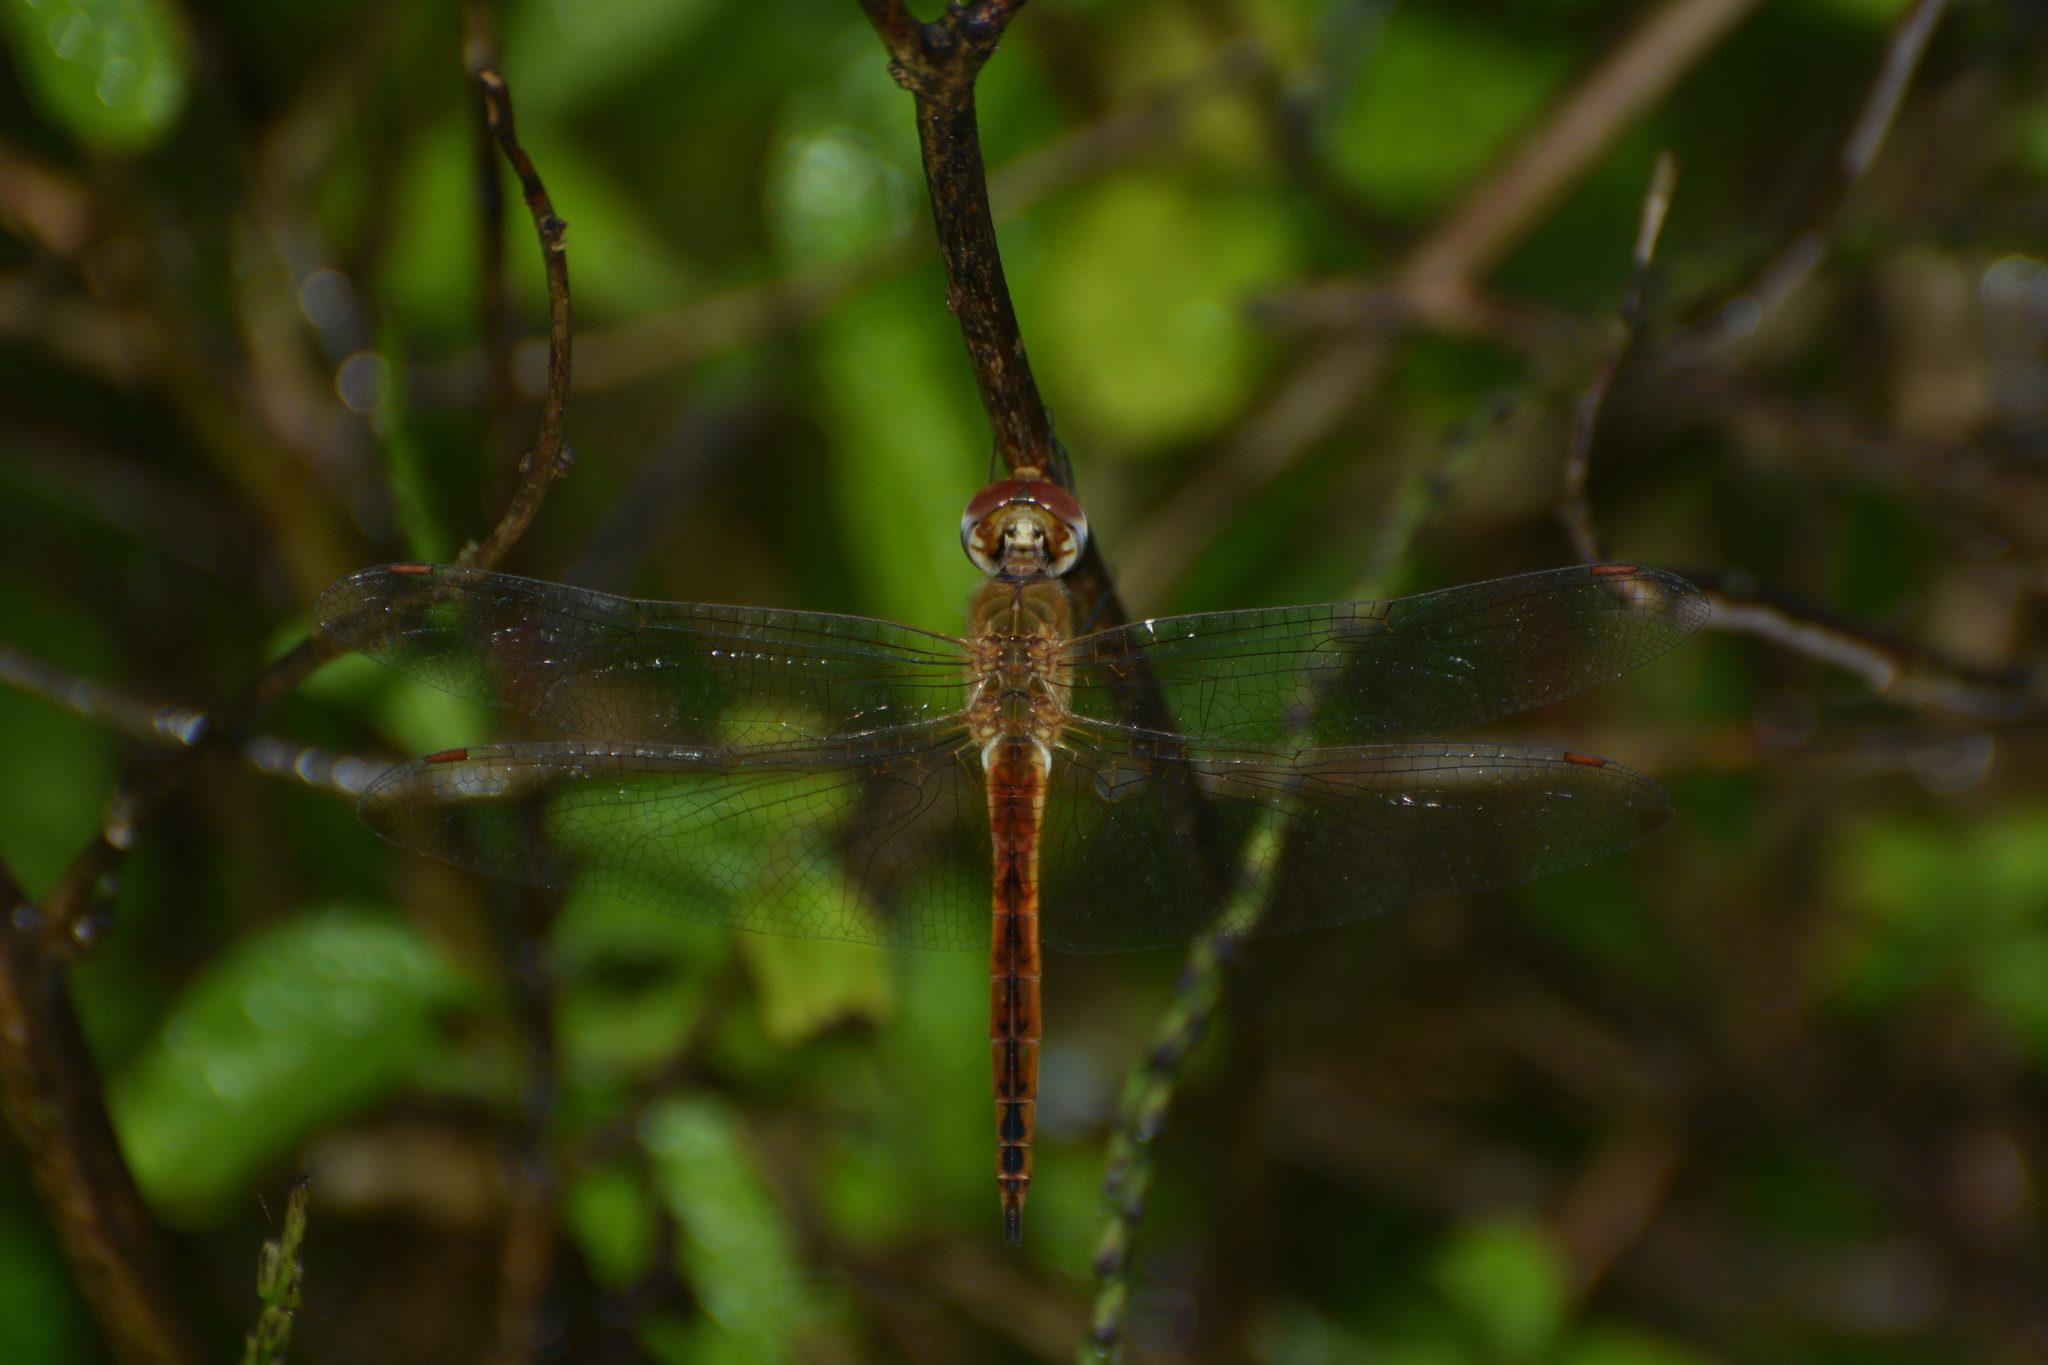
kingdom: Animalia
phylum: Arthropoda
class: Insecta
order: Odonata
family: Libellulidae
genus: Pantala
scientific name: Pantala flavescens
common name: Wandering glider
